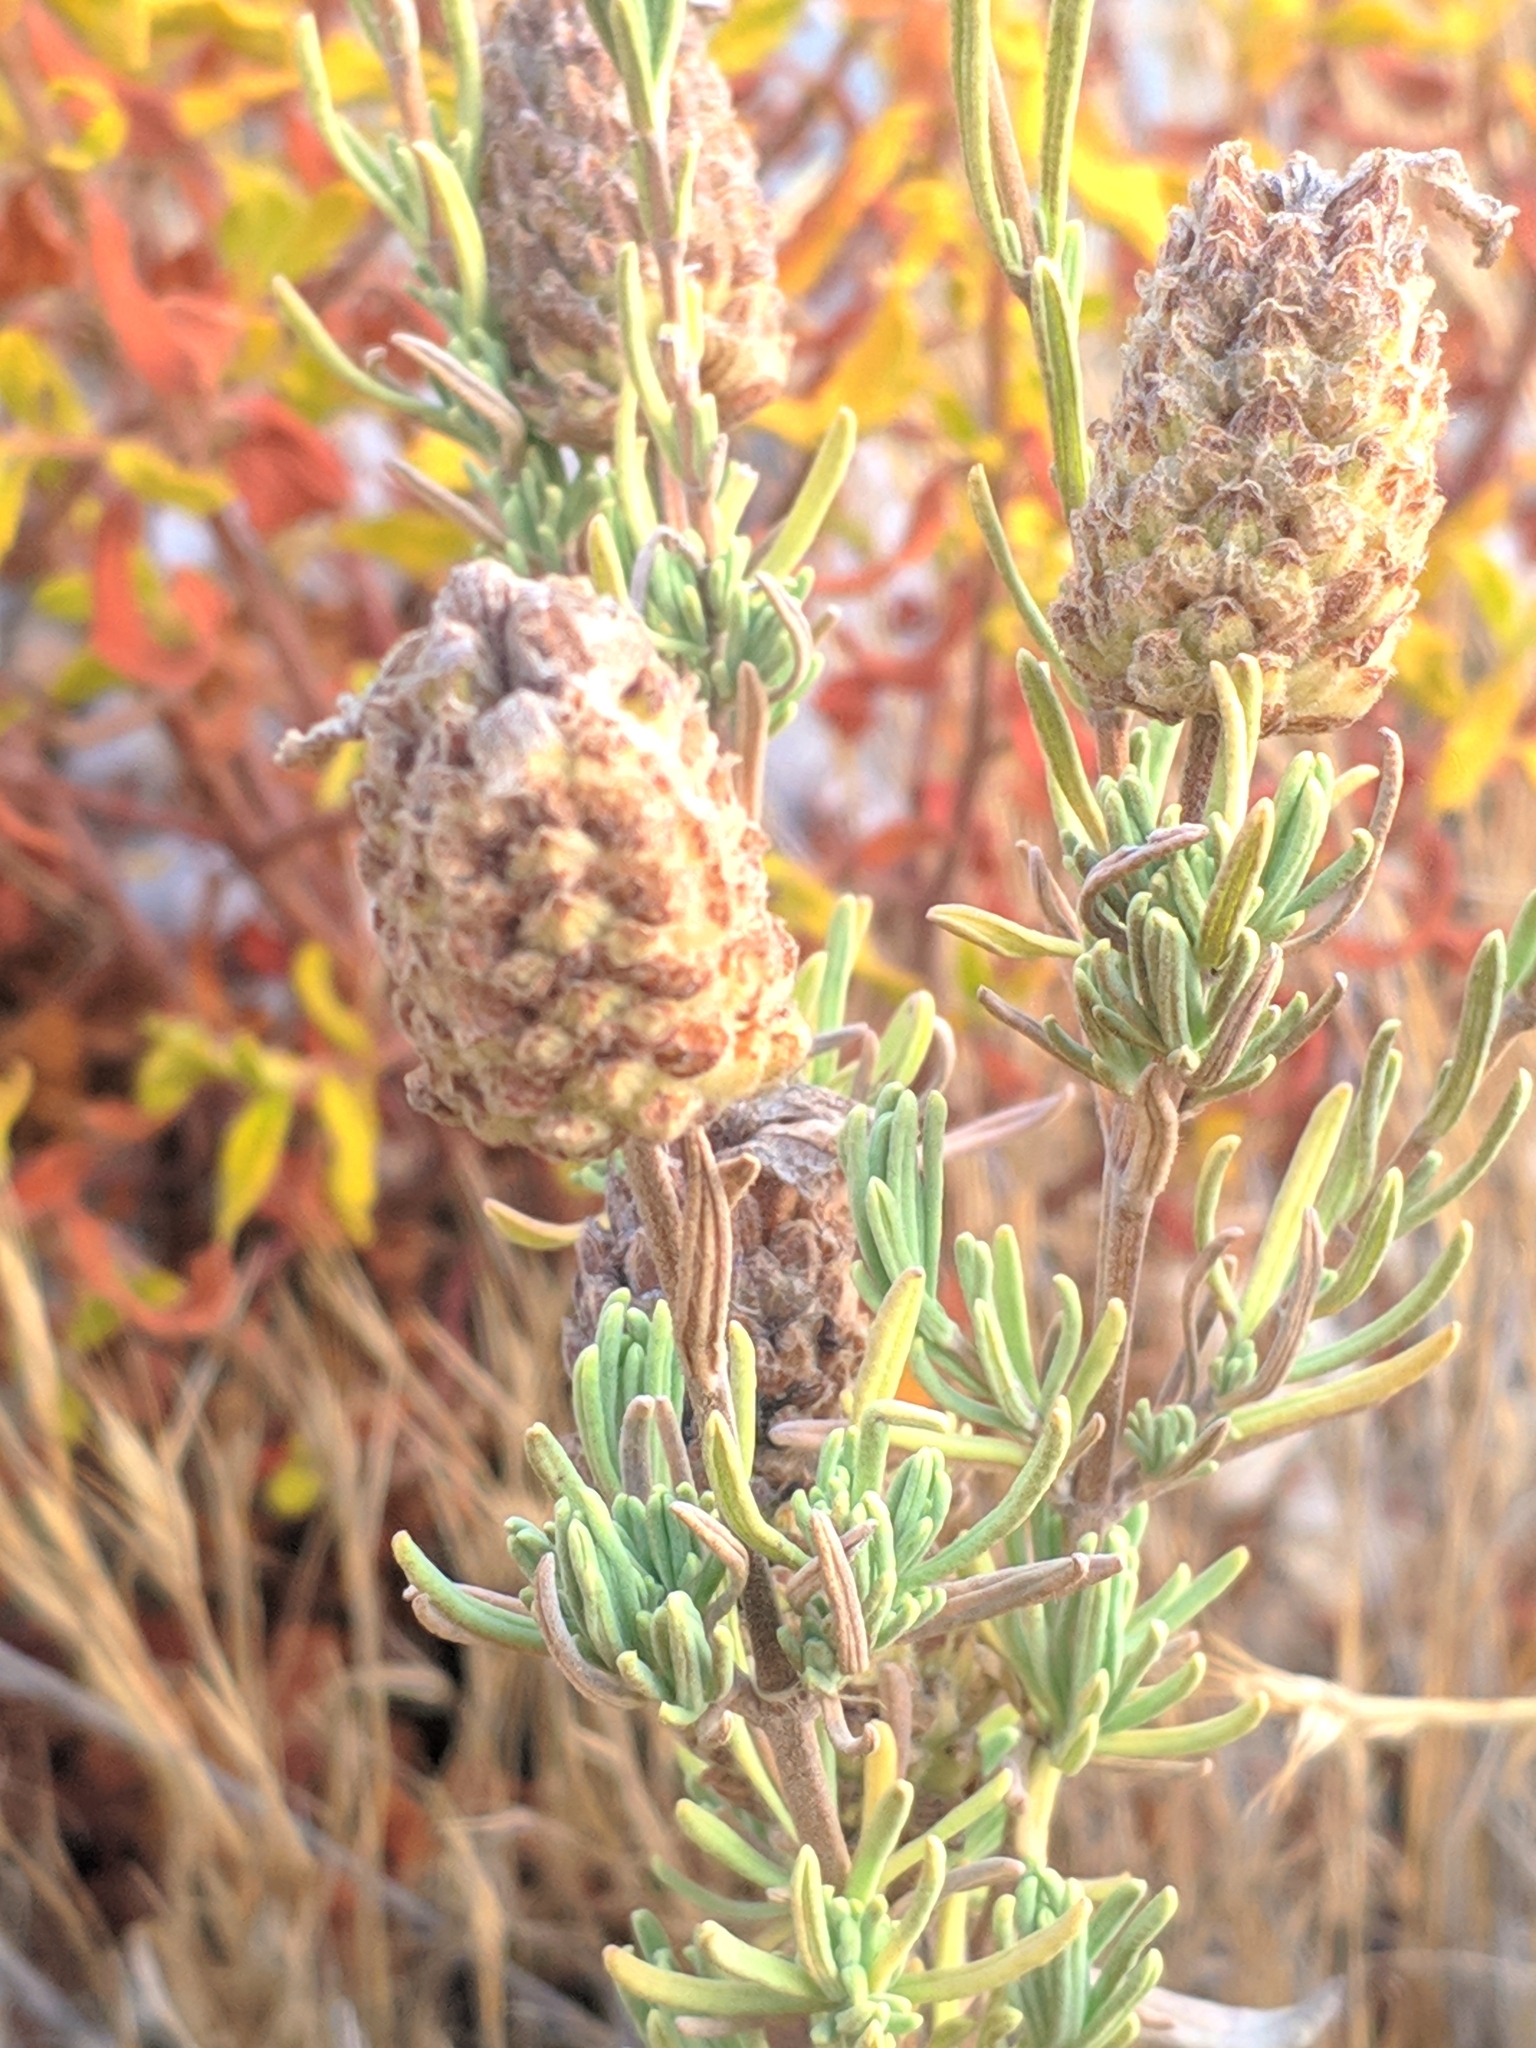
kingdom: Plantae
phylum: Tracheophyta
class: Magnoliopsida
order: Lamiales
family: Lamiaceae
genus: Lavandula
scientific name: Lavandula stoechas
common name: French lavender
